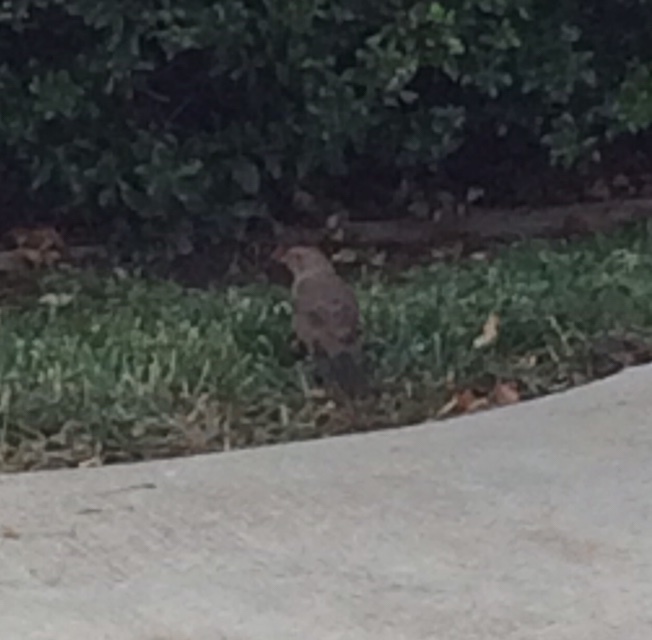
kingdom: Animalia
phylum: Chordata
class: Aves
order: Passeriformes
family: Passerellidae
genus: Melozone
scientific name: Melozone crissalis
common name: California towhee
